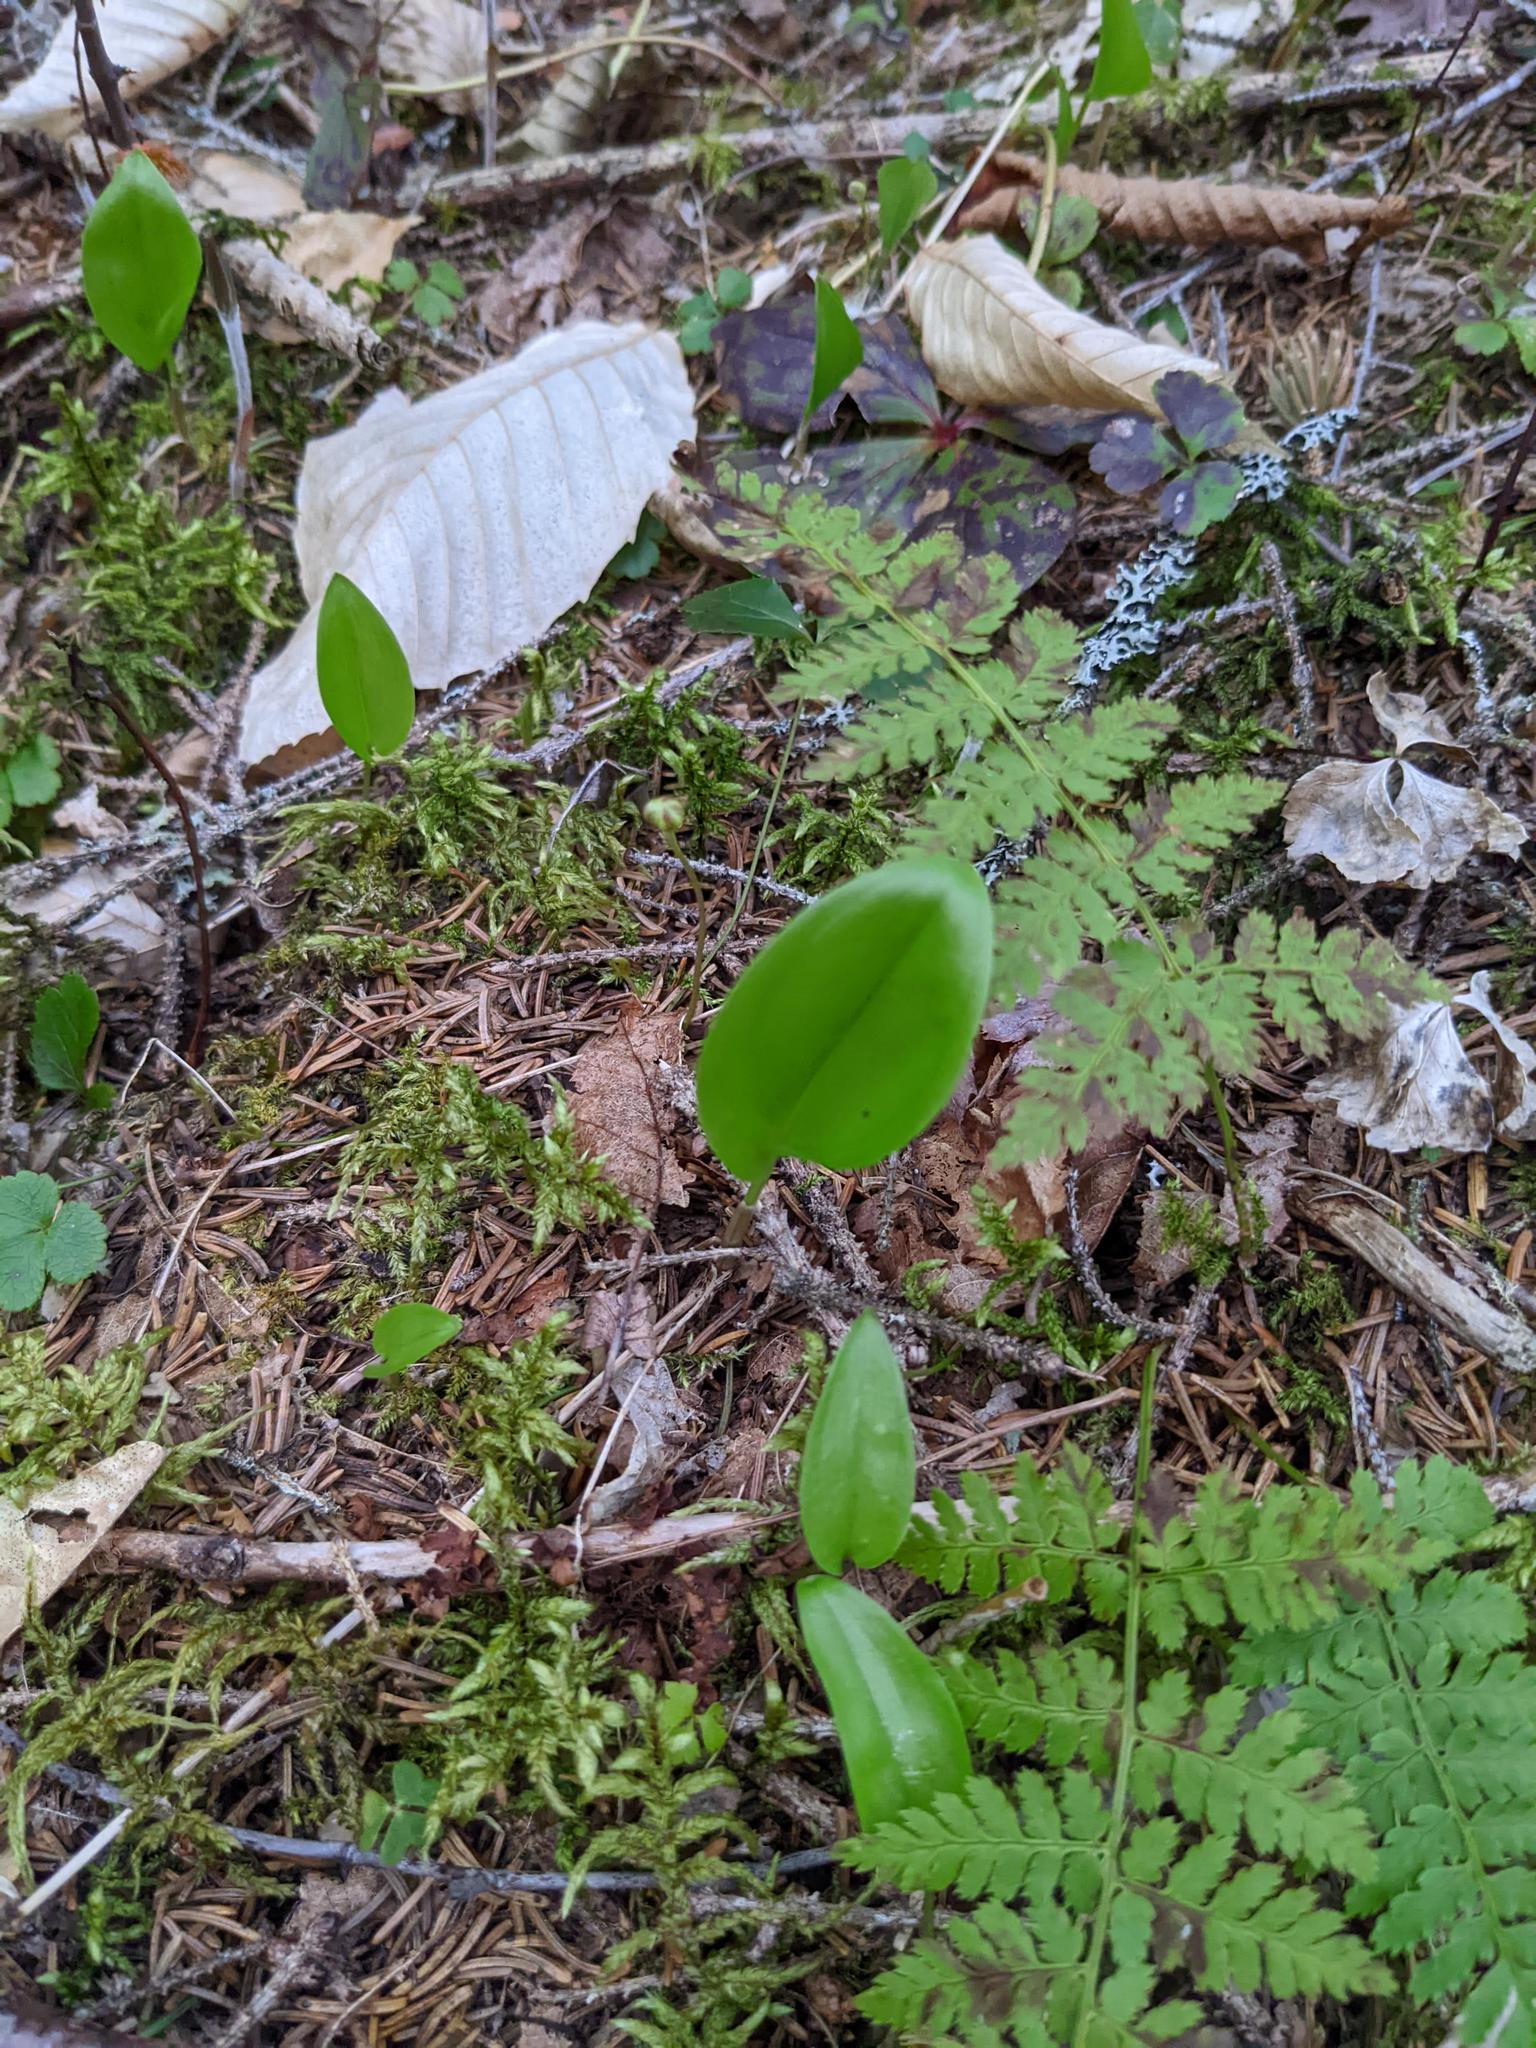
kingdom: Plantae
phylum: Tracheophyta
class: Liliopsida
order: Asparagales
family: Asparagaceae
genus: Maianthemum
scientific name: Maianthemum canadense
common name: False lily-of-the-valley
